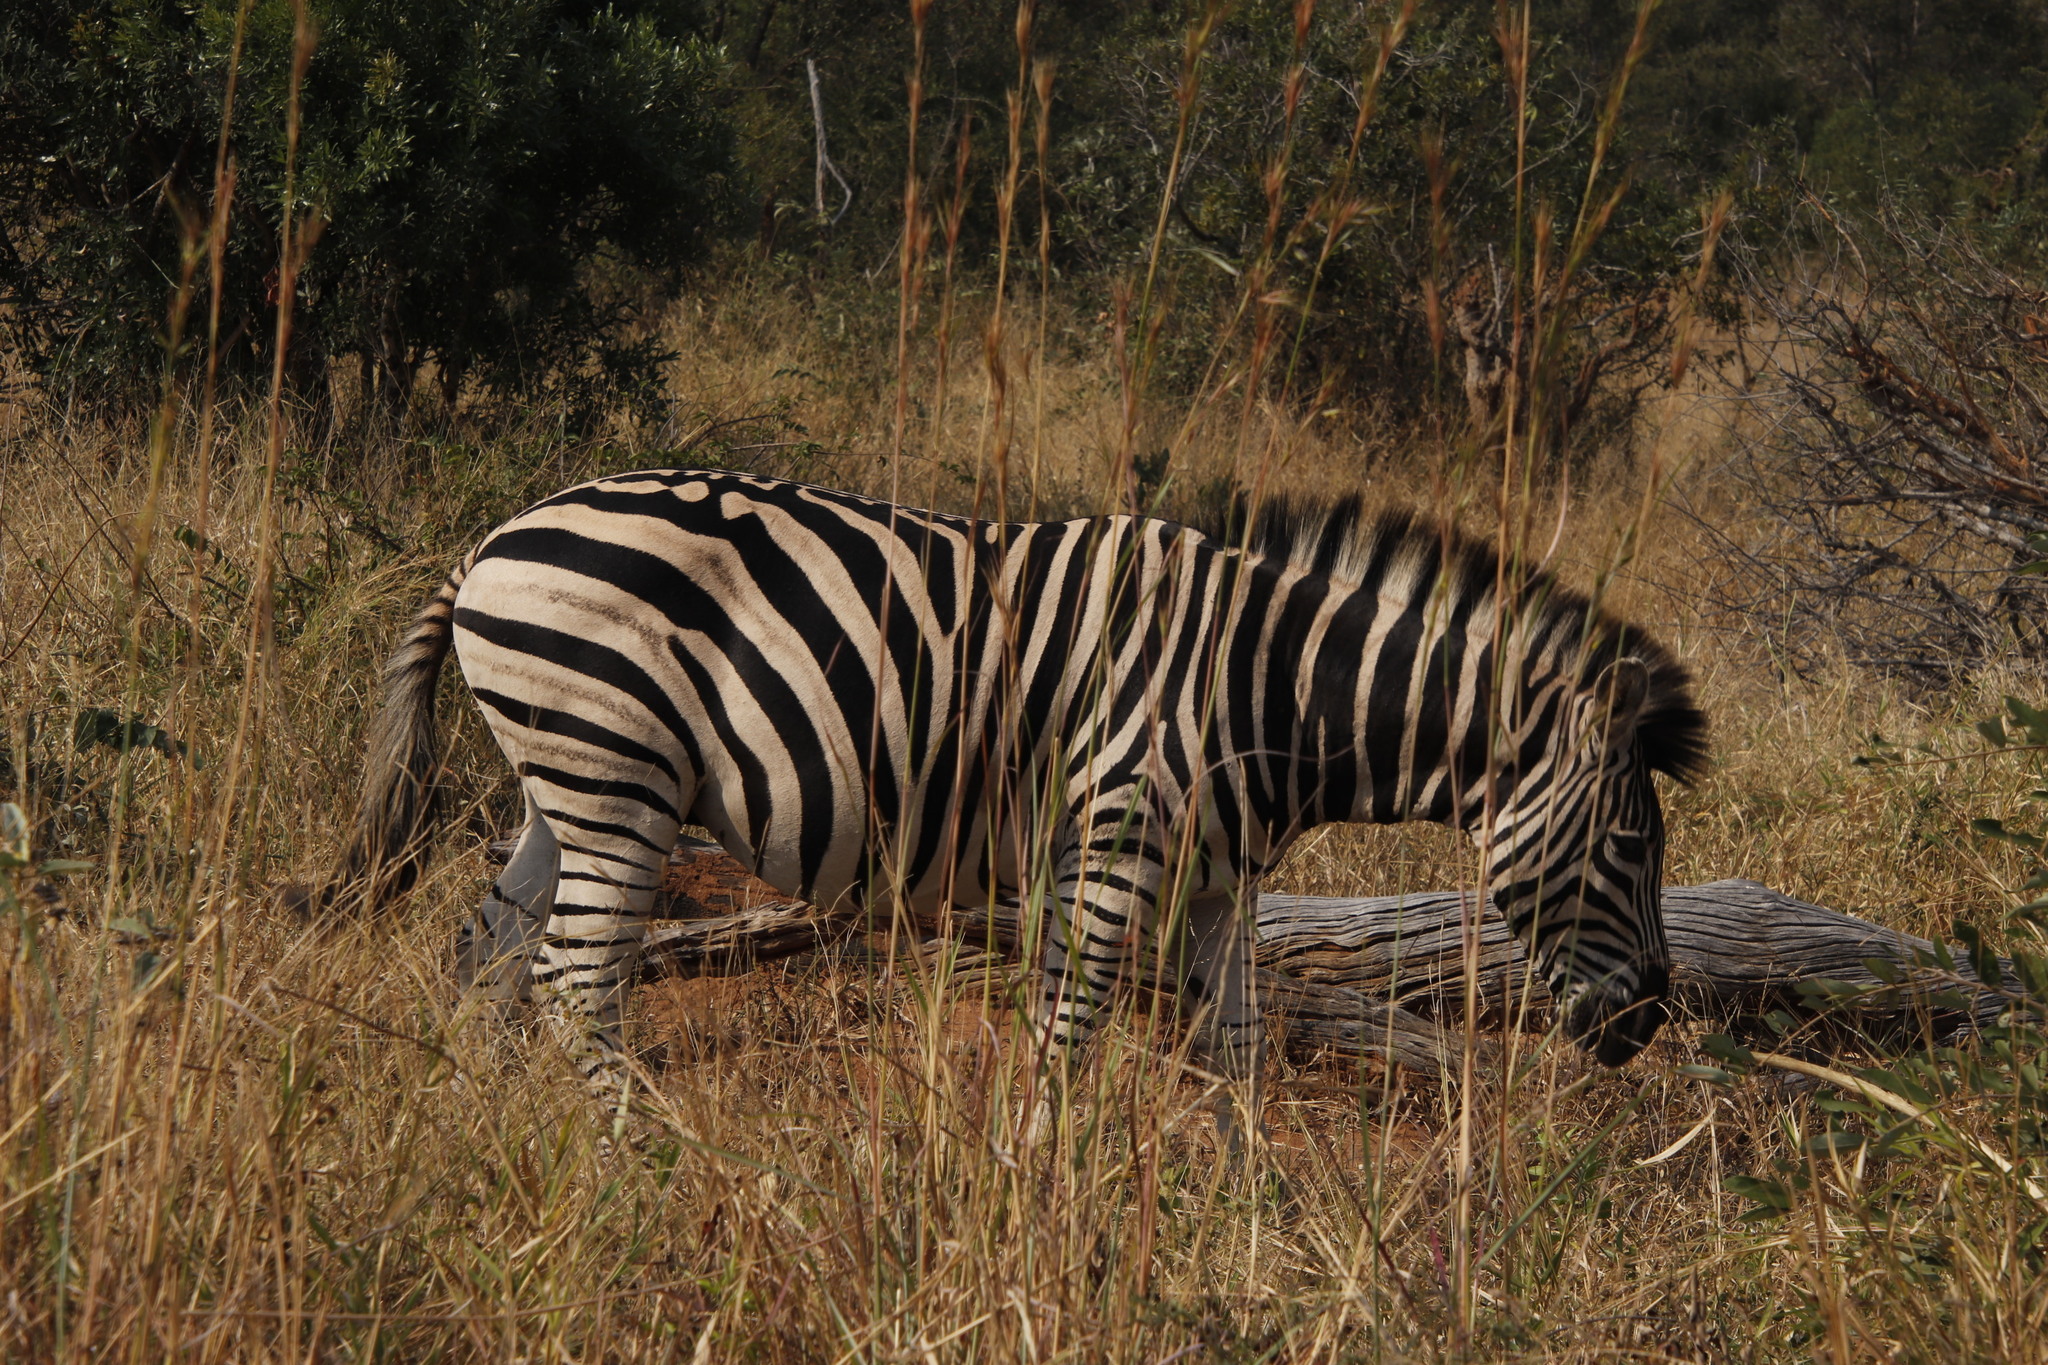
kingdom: Animalia
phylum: Chordata
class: Mammalia
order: Perissodactyla
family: Equidae
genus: Equus
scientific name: Equus quagga
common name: Plains zebra
